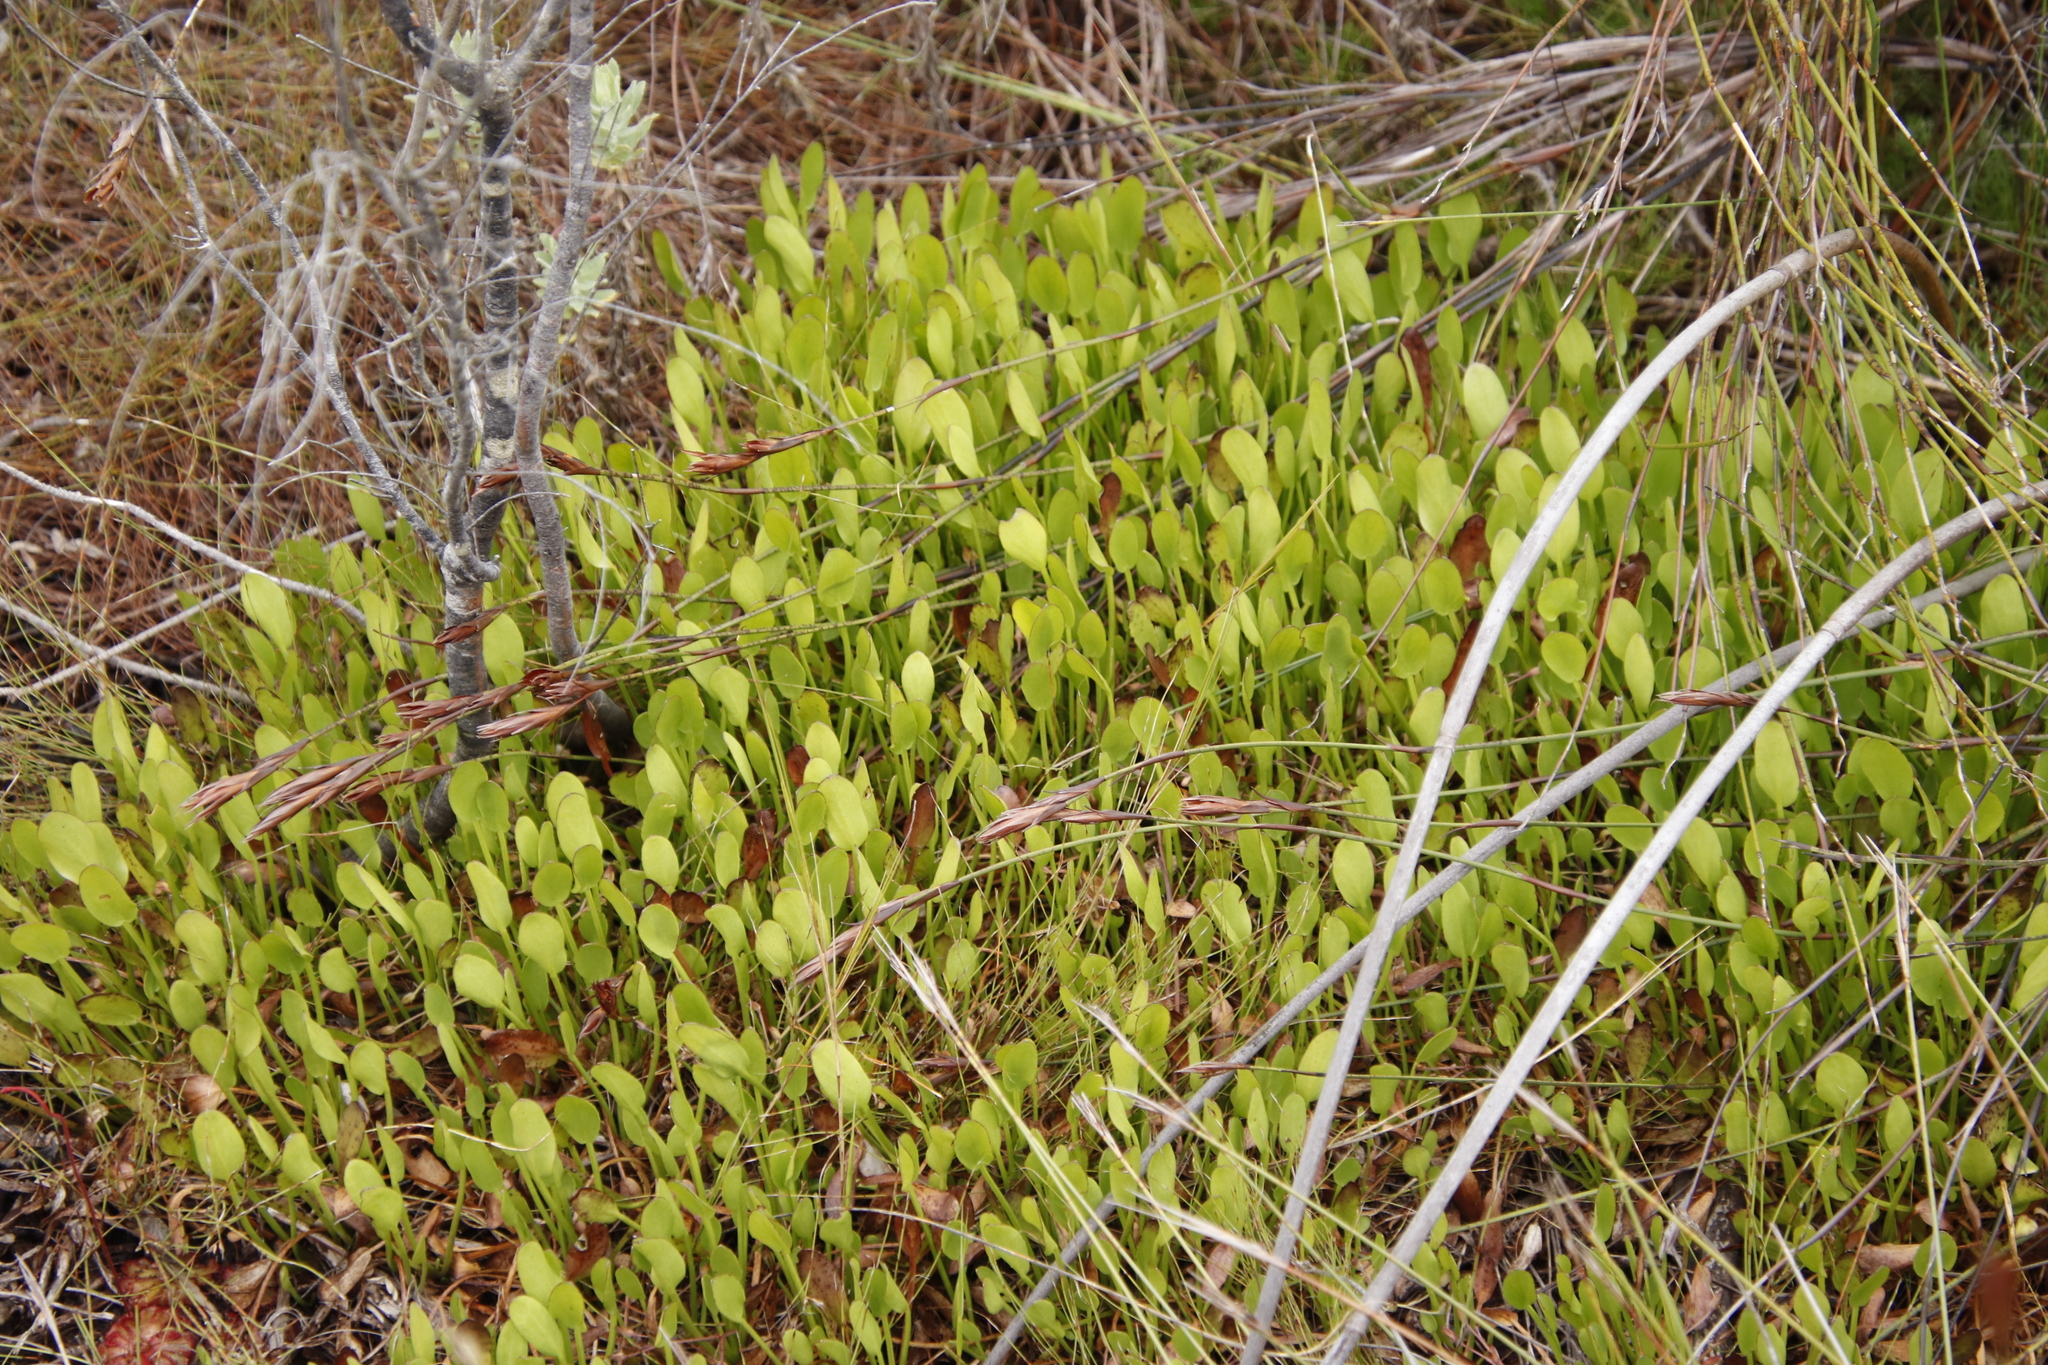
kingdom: Plantae
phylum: Tracheophyta
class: Magnoliopsida
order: Asterales
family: Menyanthaceae
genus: Villarsia
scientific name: Villarsia manningiana
